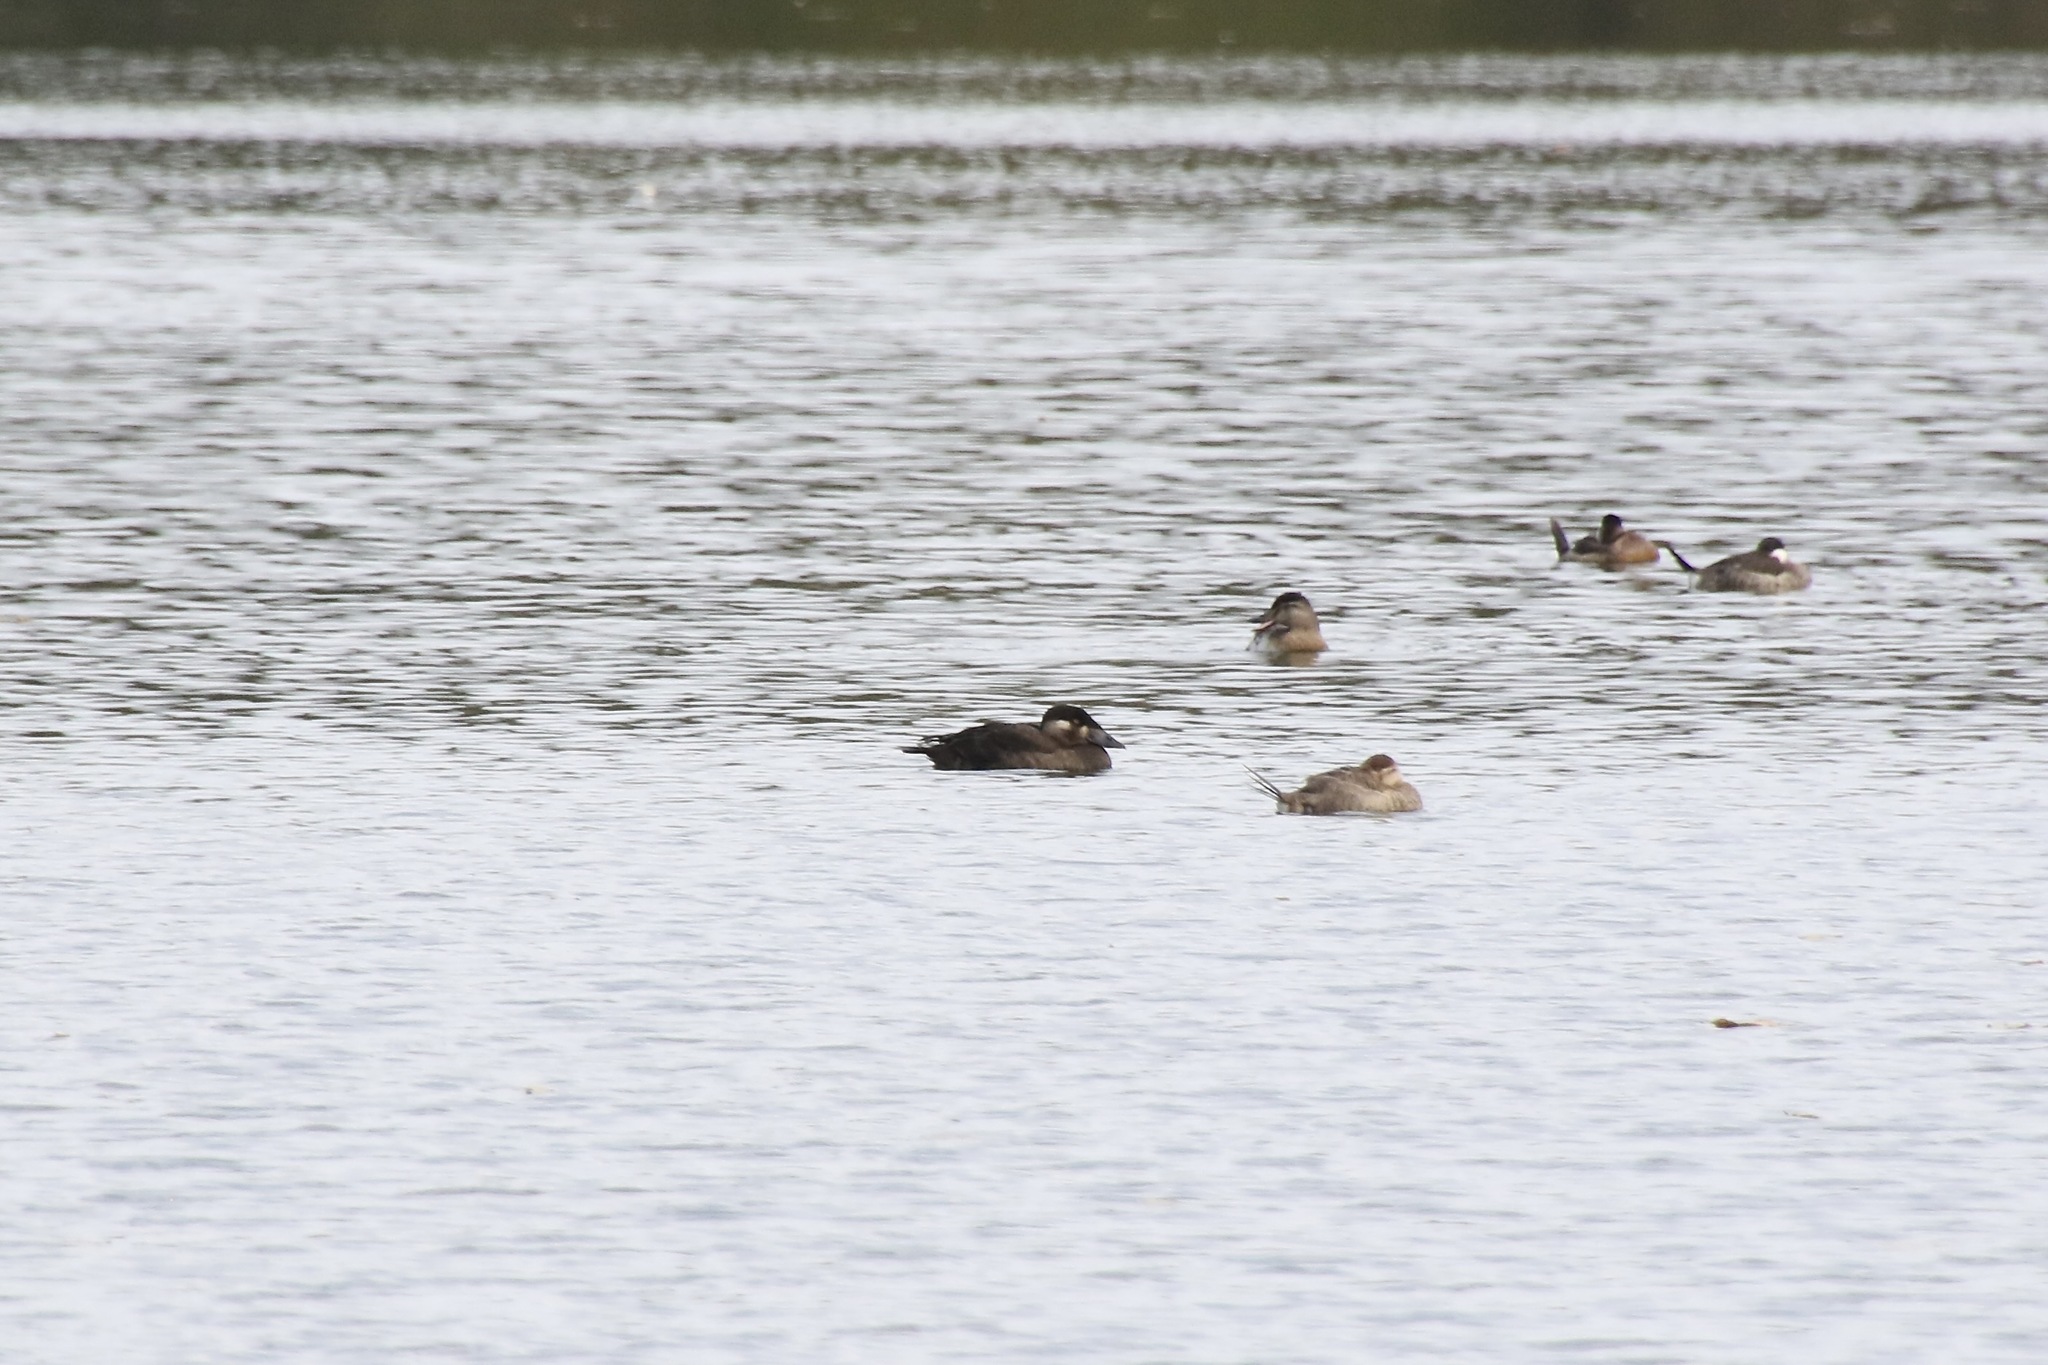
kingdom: Animalia
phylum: Chordata
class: Aves
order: Anseriformes
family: Anatidae
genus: Melanitta
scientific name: Melanitta perspicillata
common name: Surf scoter
